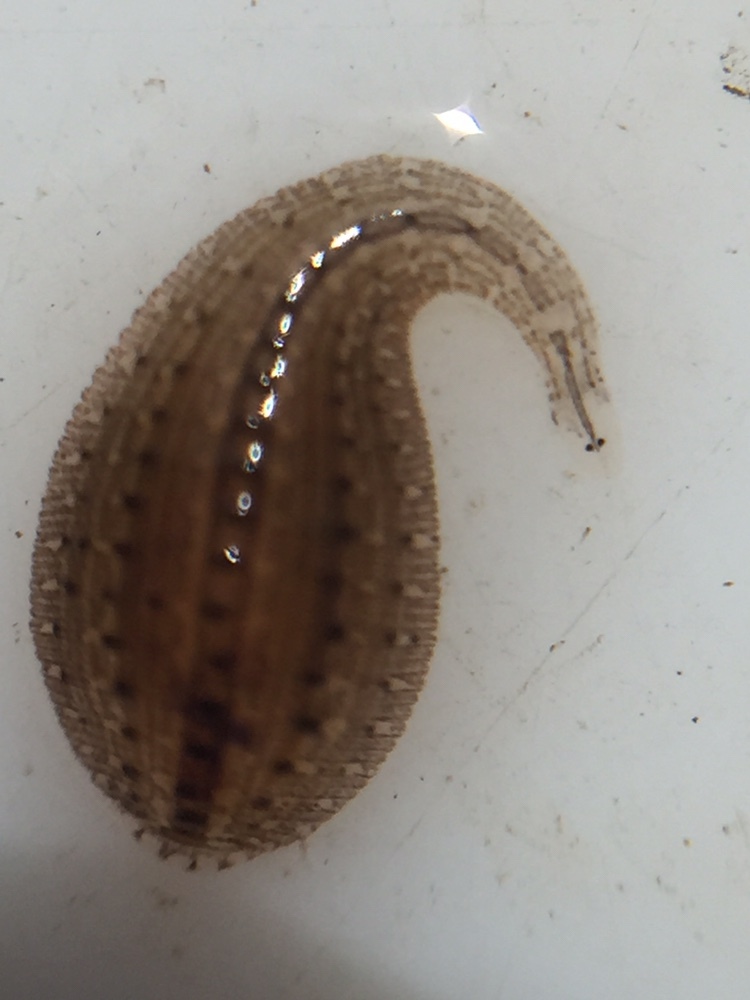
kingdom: Animalia
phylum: Annelida
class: Clitellata
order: Rhynchobdellida
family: Glossiphoniidae
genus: Helobdella
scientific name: Helobdella europaea
